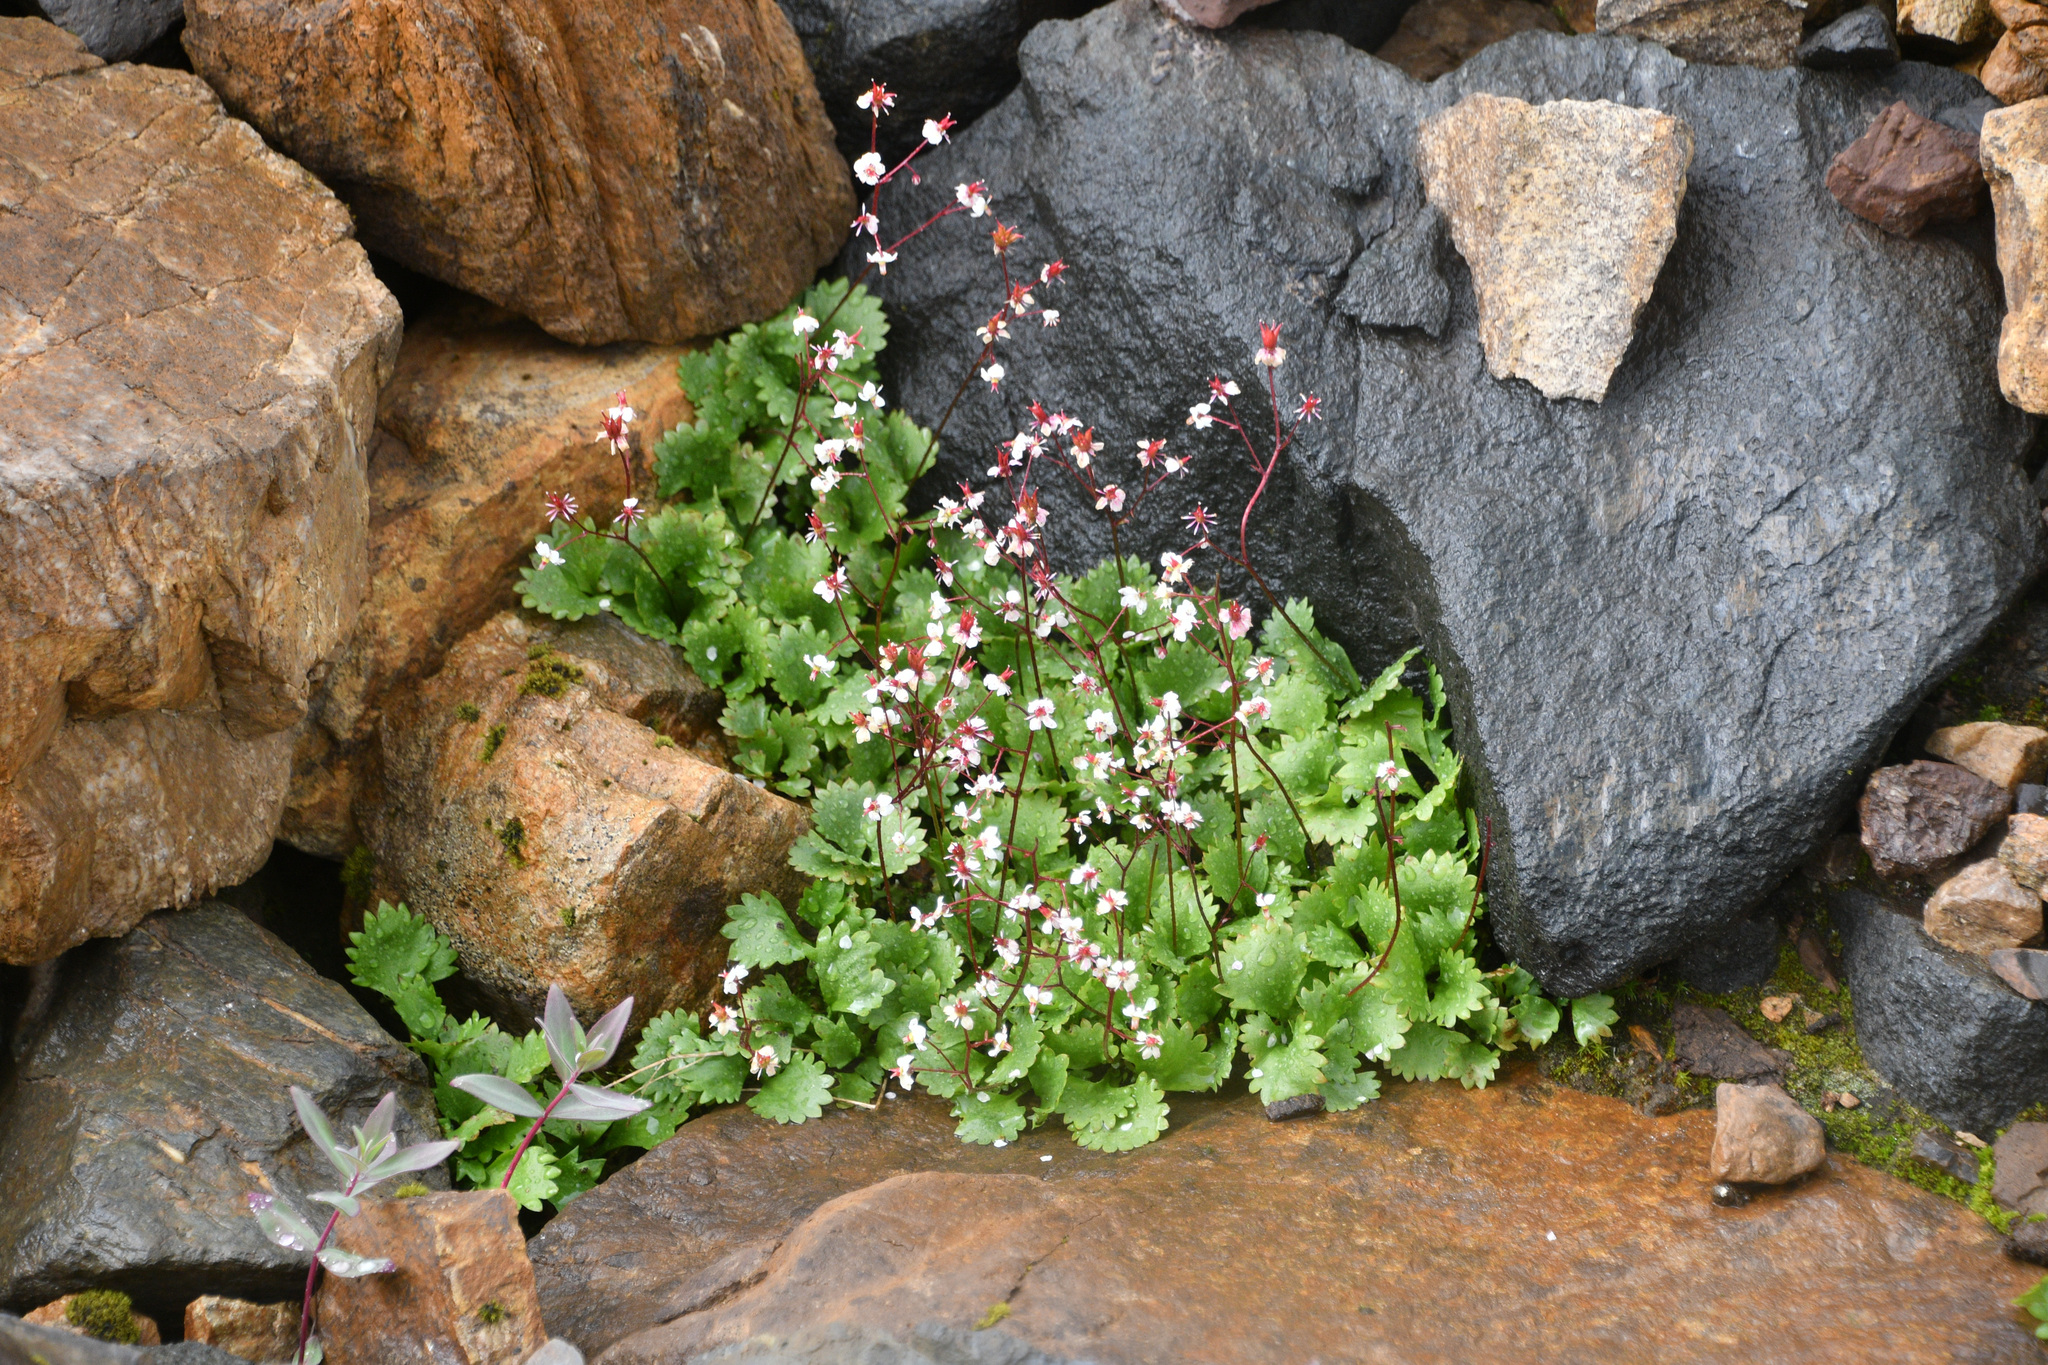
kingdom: Plantae
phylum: Tracheophyta
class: Magnoliopsida
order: Saxifragales
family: Saxifragaceae
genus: Micranthes
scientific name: Micranthes lyallii
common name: Lyall's saxifrage
